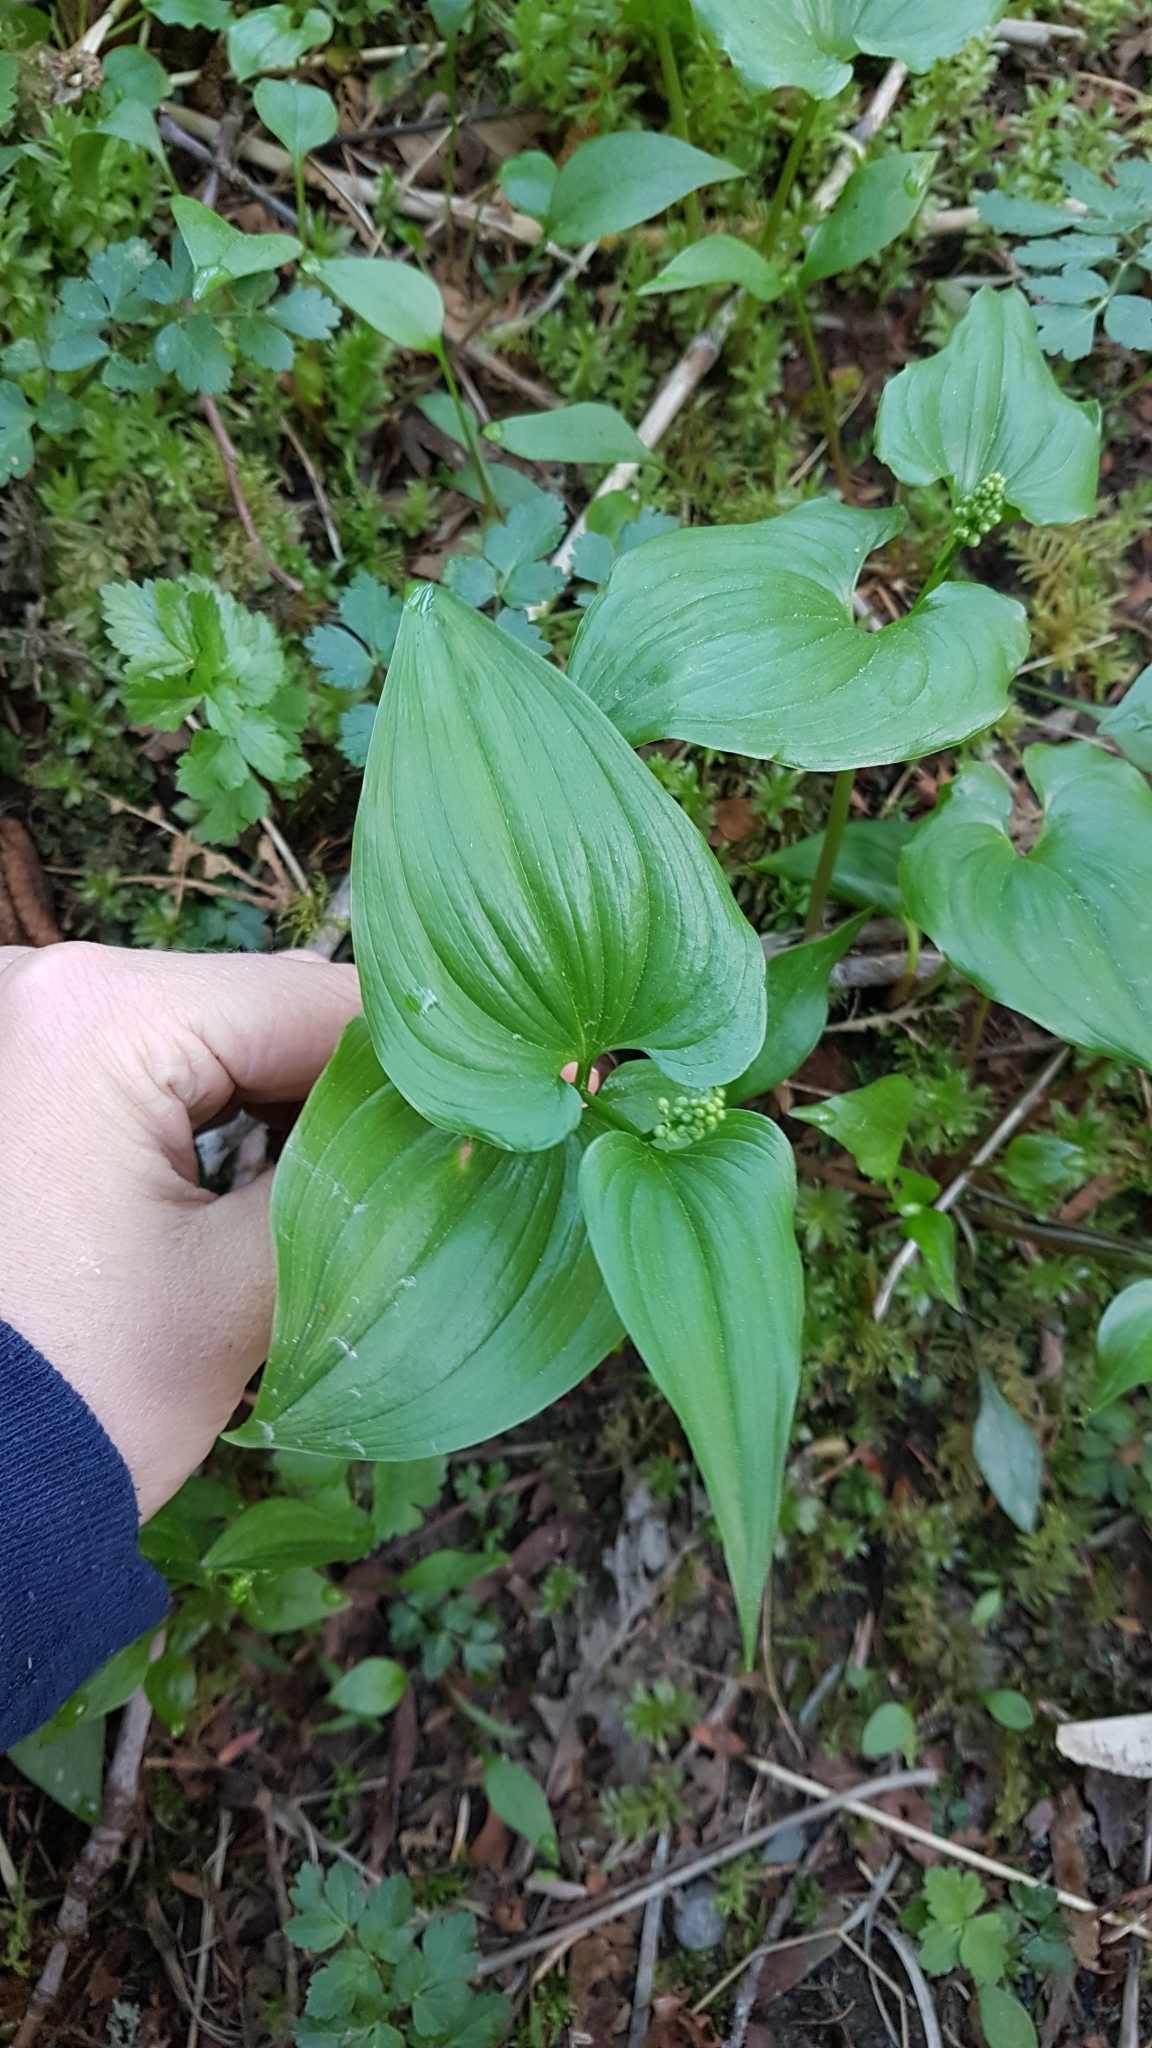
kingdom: Plantae
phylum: Tracheophyta
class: Liliopsida
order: Asparagales
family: Asparagaceae
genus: Maianthemum
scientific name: Maianthemum dilatatum
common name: False lily-of-the-valley
